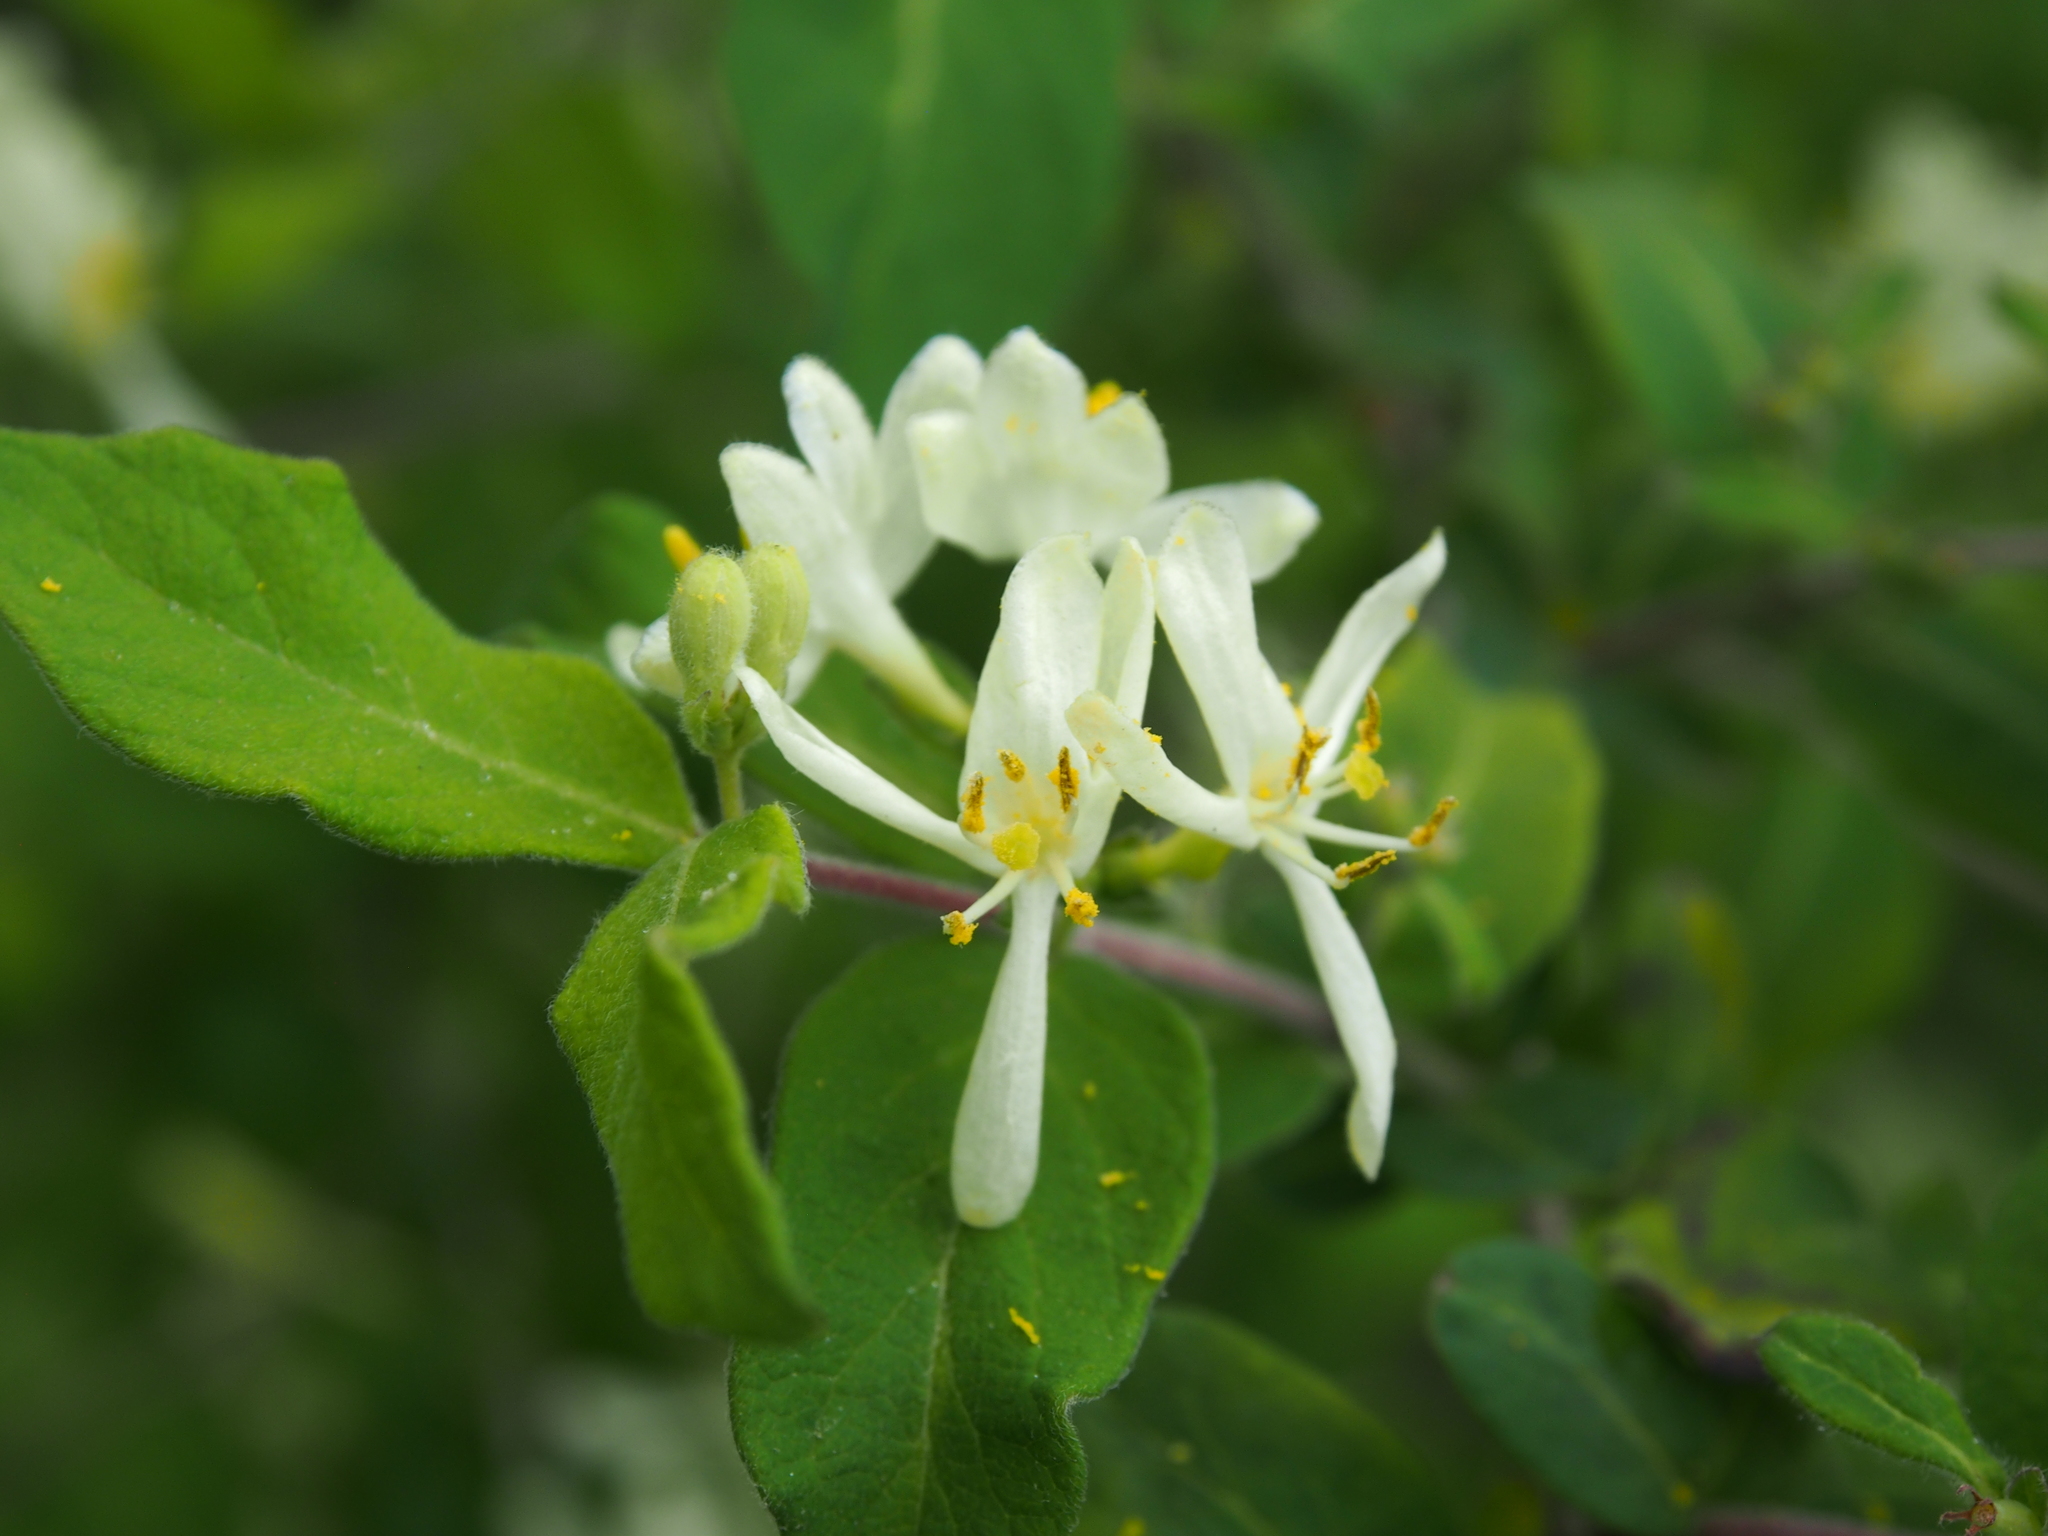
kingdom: Plantae
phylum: Tracheophyta
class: Magnoliopsida
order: Dipsacales
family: Caprifoliaceae
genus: Lonicera
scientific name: Lonicera morrowii
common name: Morrow's honeysuckle
